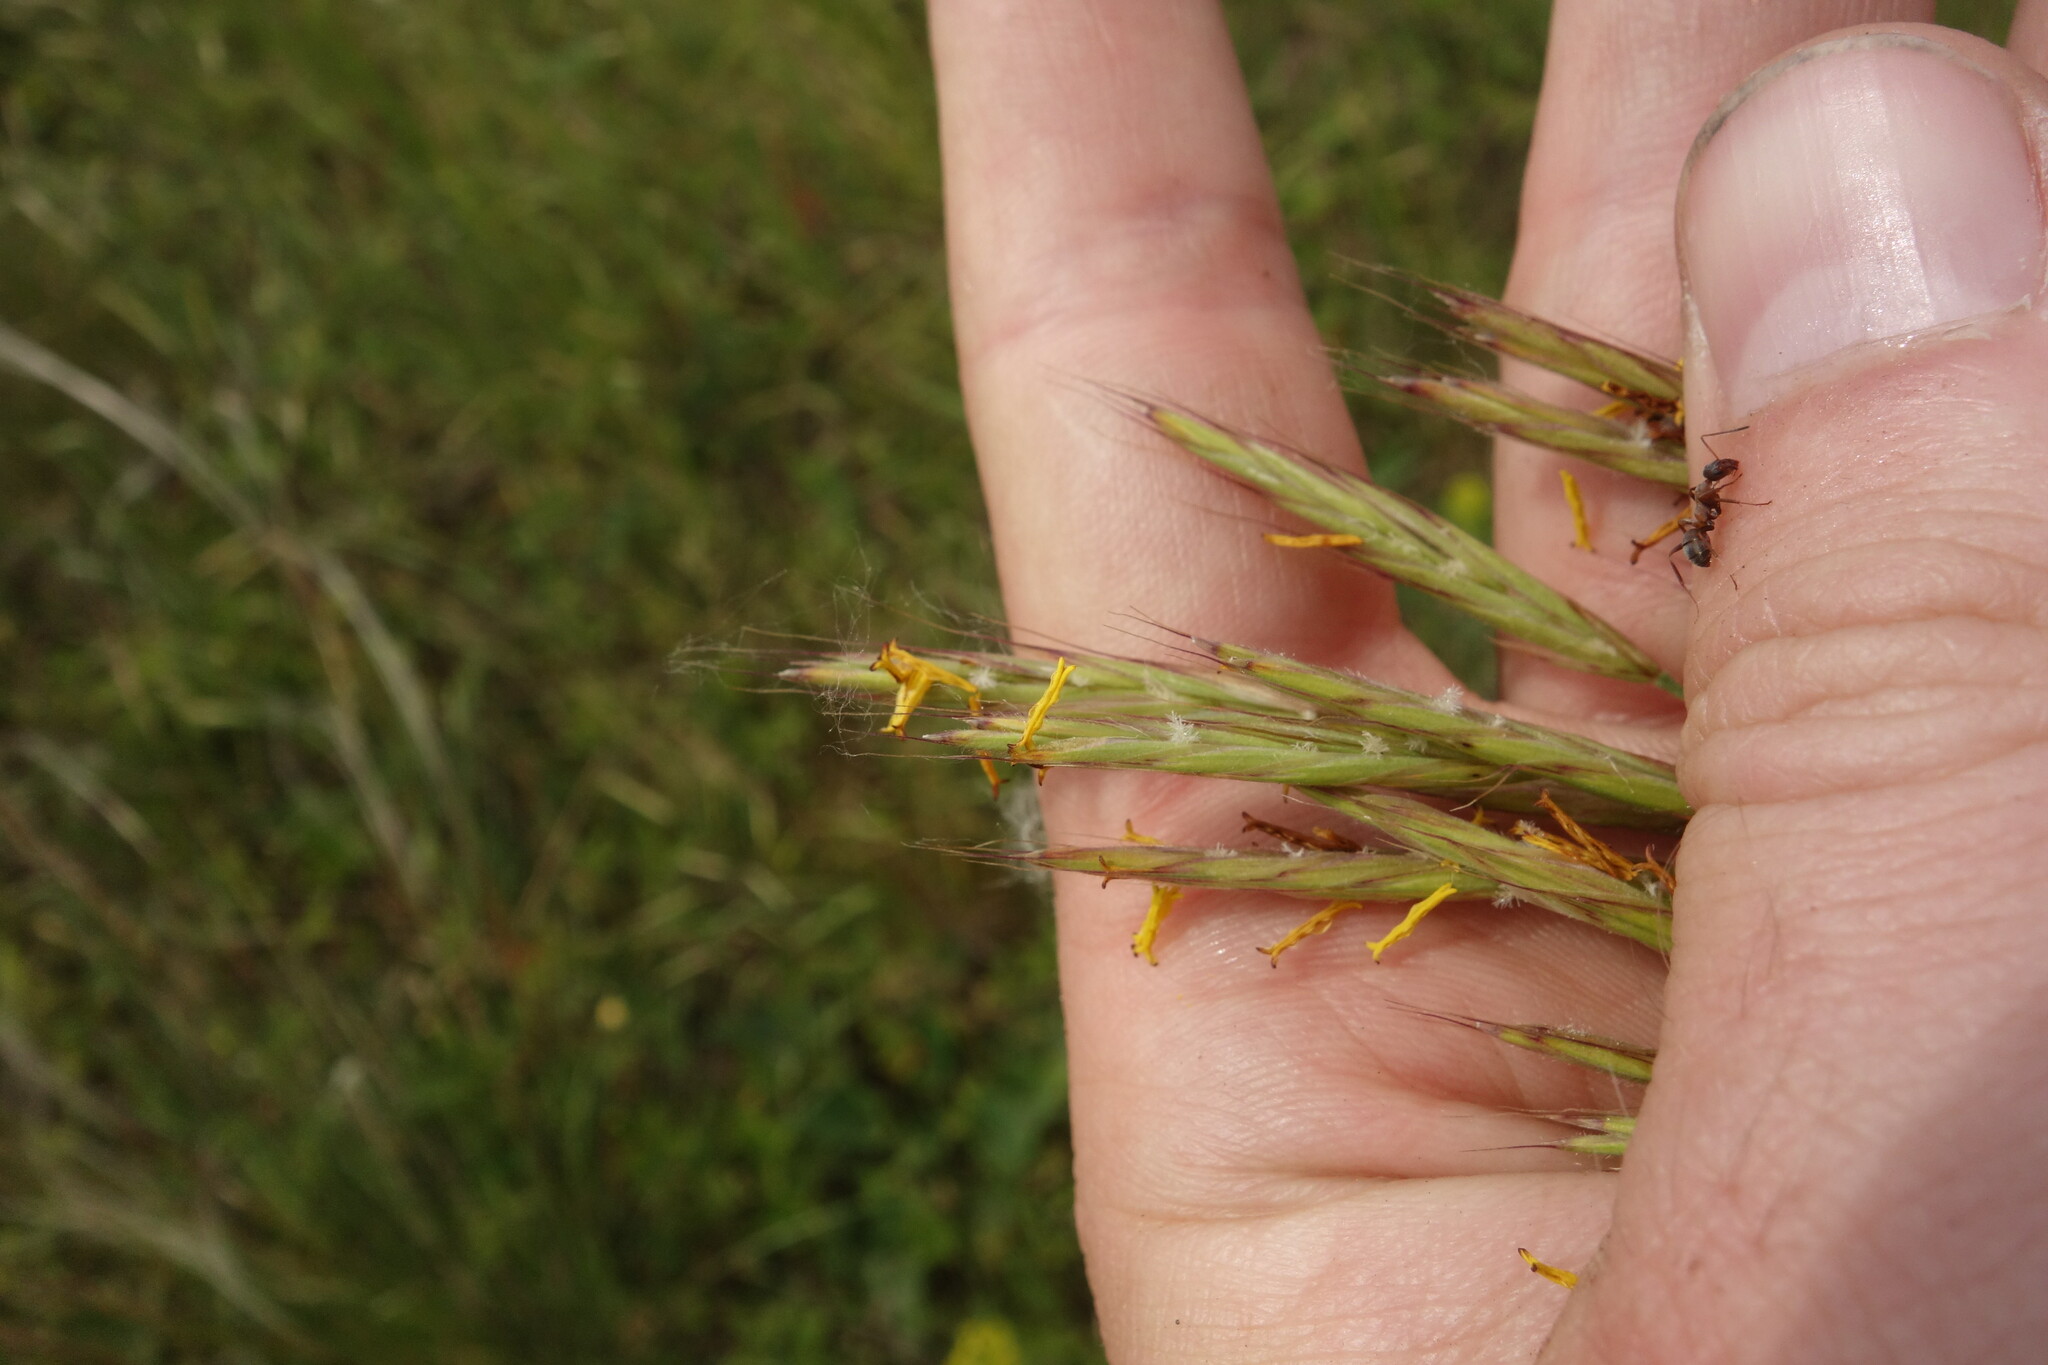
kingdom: Plantae
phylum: Tracheophyta
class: Liliopsida
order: Poales
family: Poaceae
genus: Bromus
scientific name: Bromus riparius
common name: Meadow brome
